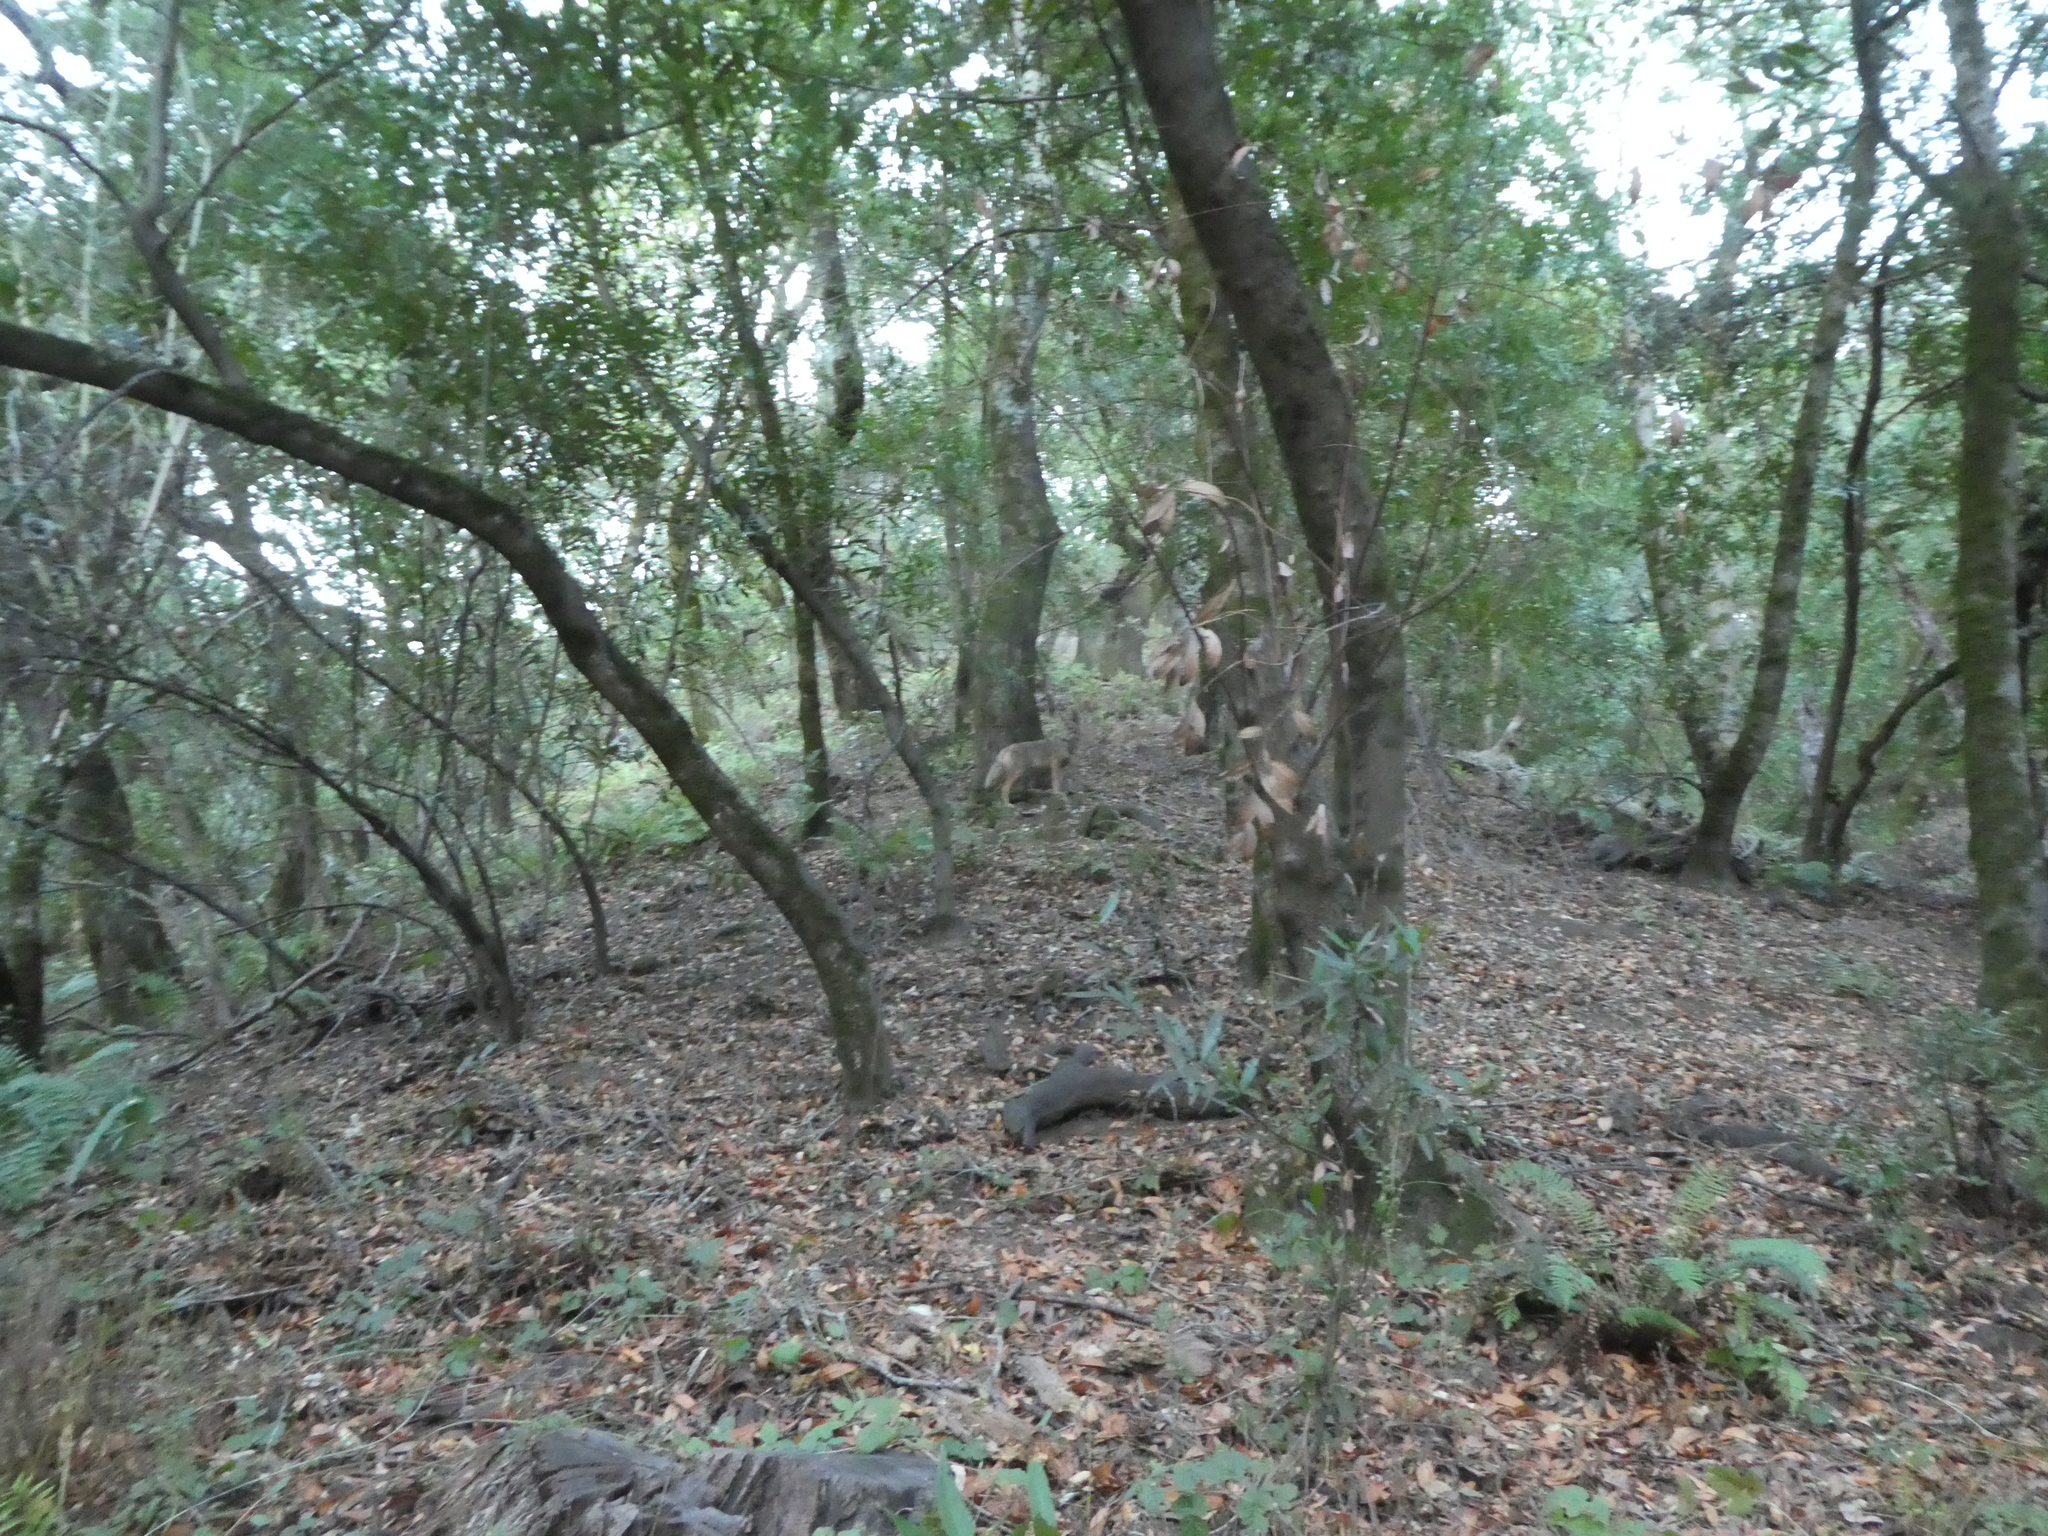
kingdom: Animalia
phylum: Chordata
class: Mammalia
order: Carnivora
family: Canidae
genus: Canis
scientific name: Canis latrans
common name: Coyote
